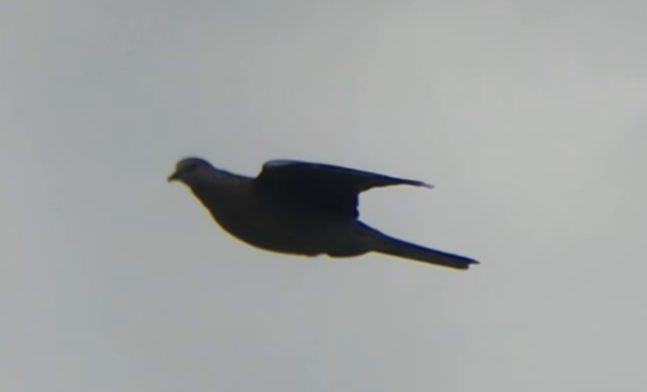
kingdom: Animalia
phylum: Chordata
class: Aves
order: Columbiformes
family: Columbidae
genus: Spilopelia
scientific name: Spilopelia chinensis
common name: Spotted dove
